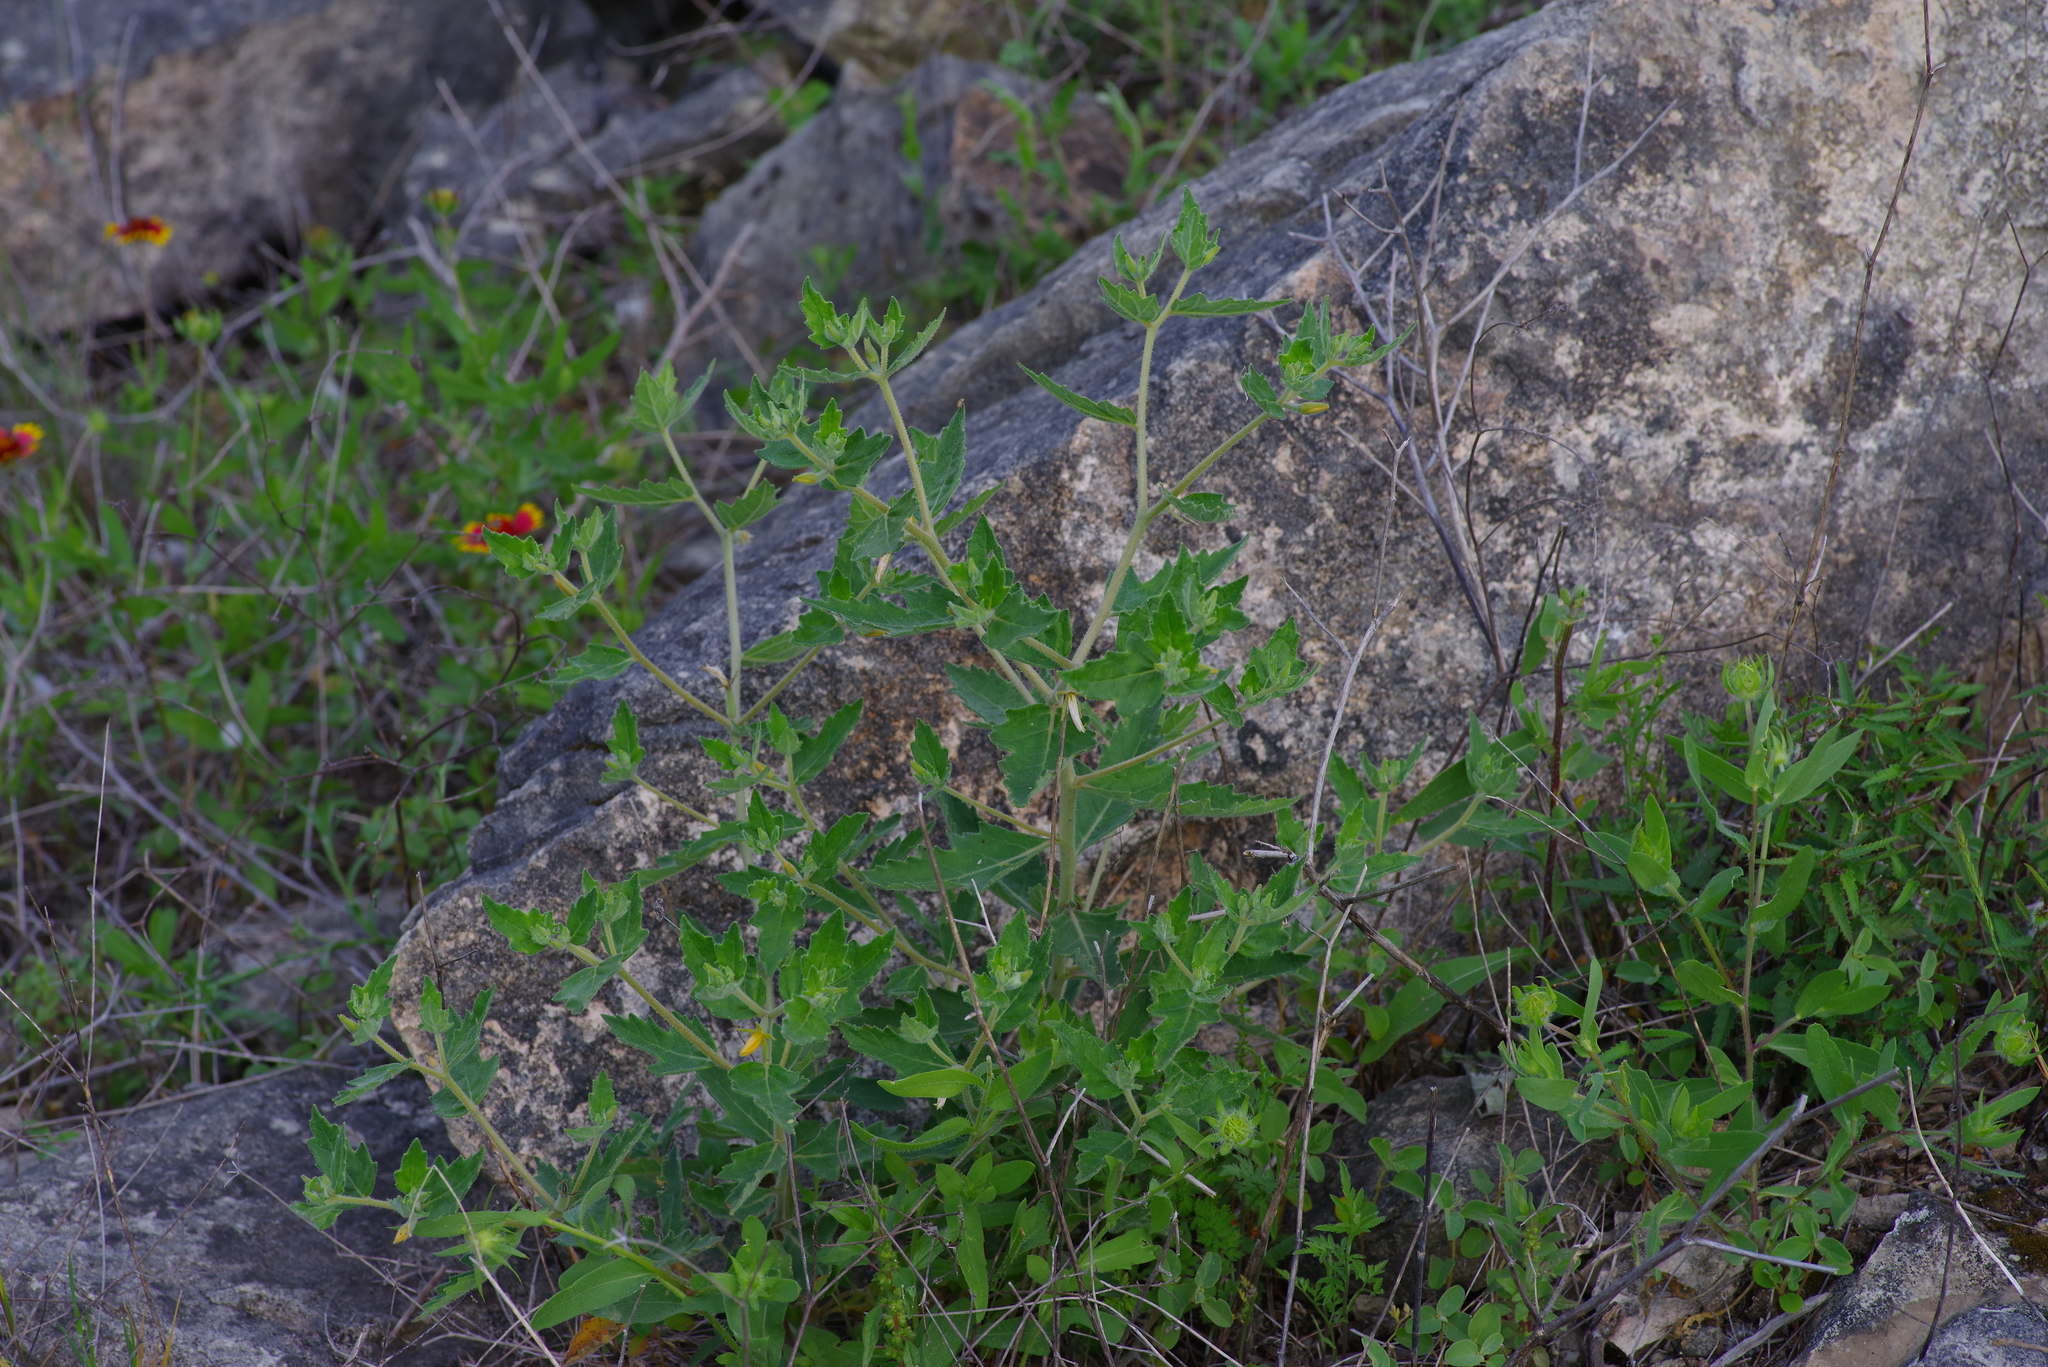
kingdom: Plantae
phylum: Tracheophyta
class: Magnoliopsida
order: Cornales
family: Loasaceae
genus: Mentzelia
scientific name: Mentzelia oligosperma
